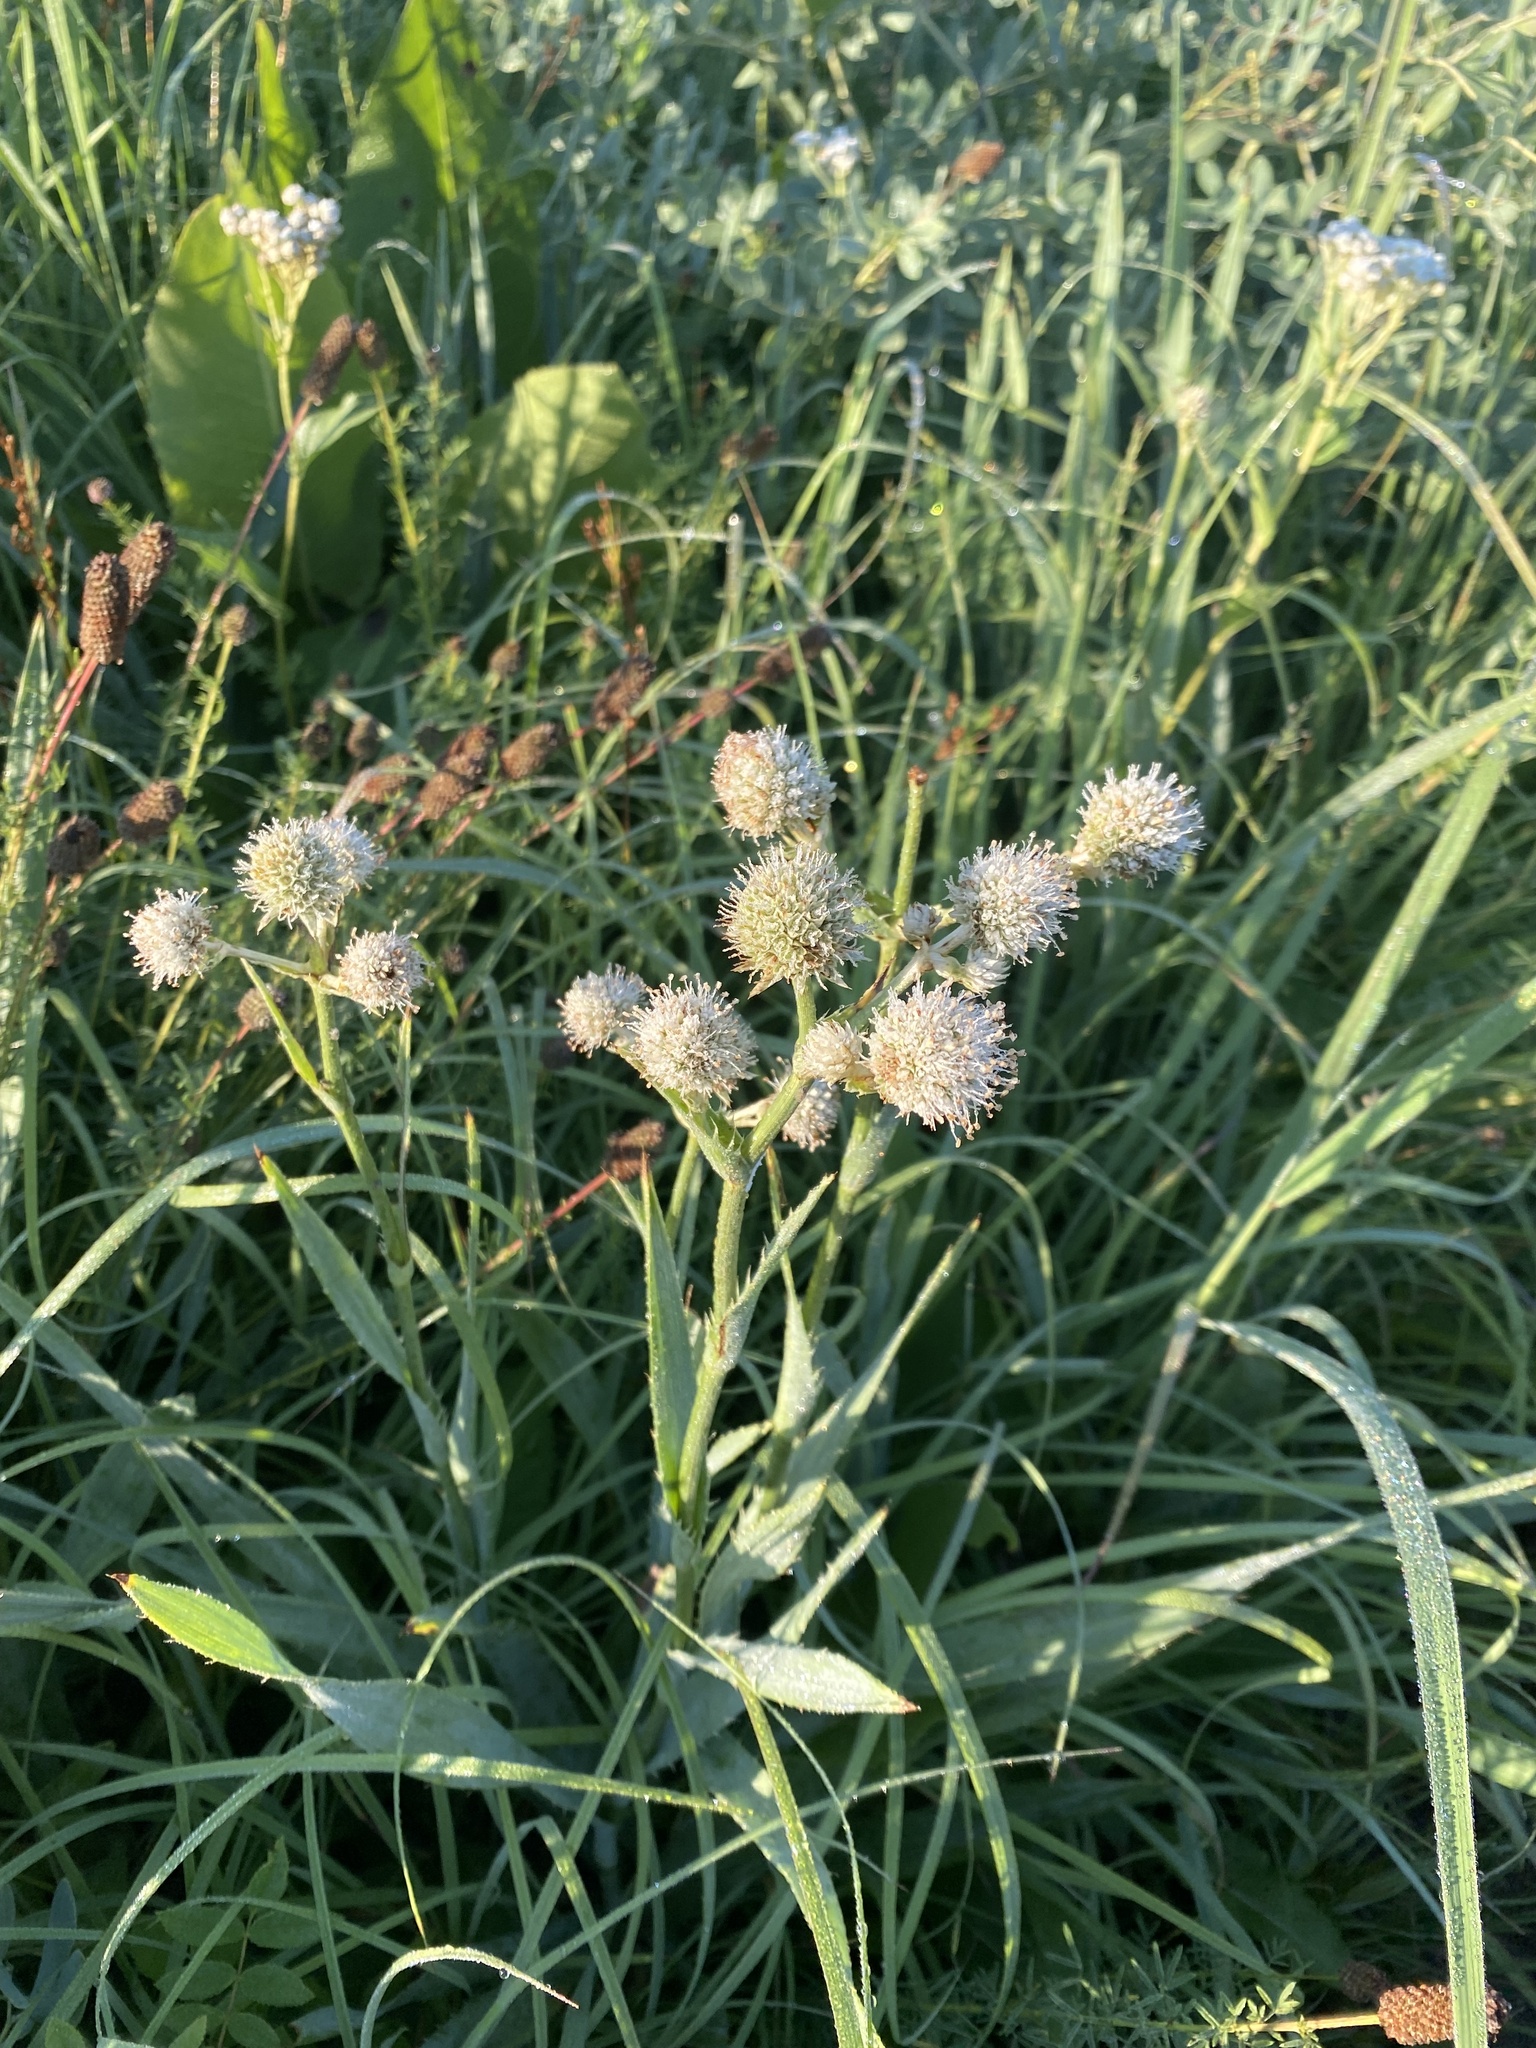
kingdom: Plantae
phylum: Tracheophyta
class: Magnoliopsida
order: Apiales
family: Apiaceae
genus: Eryngium
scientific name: Eryngium yuccifolium
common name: Button eryngo
